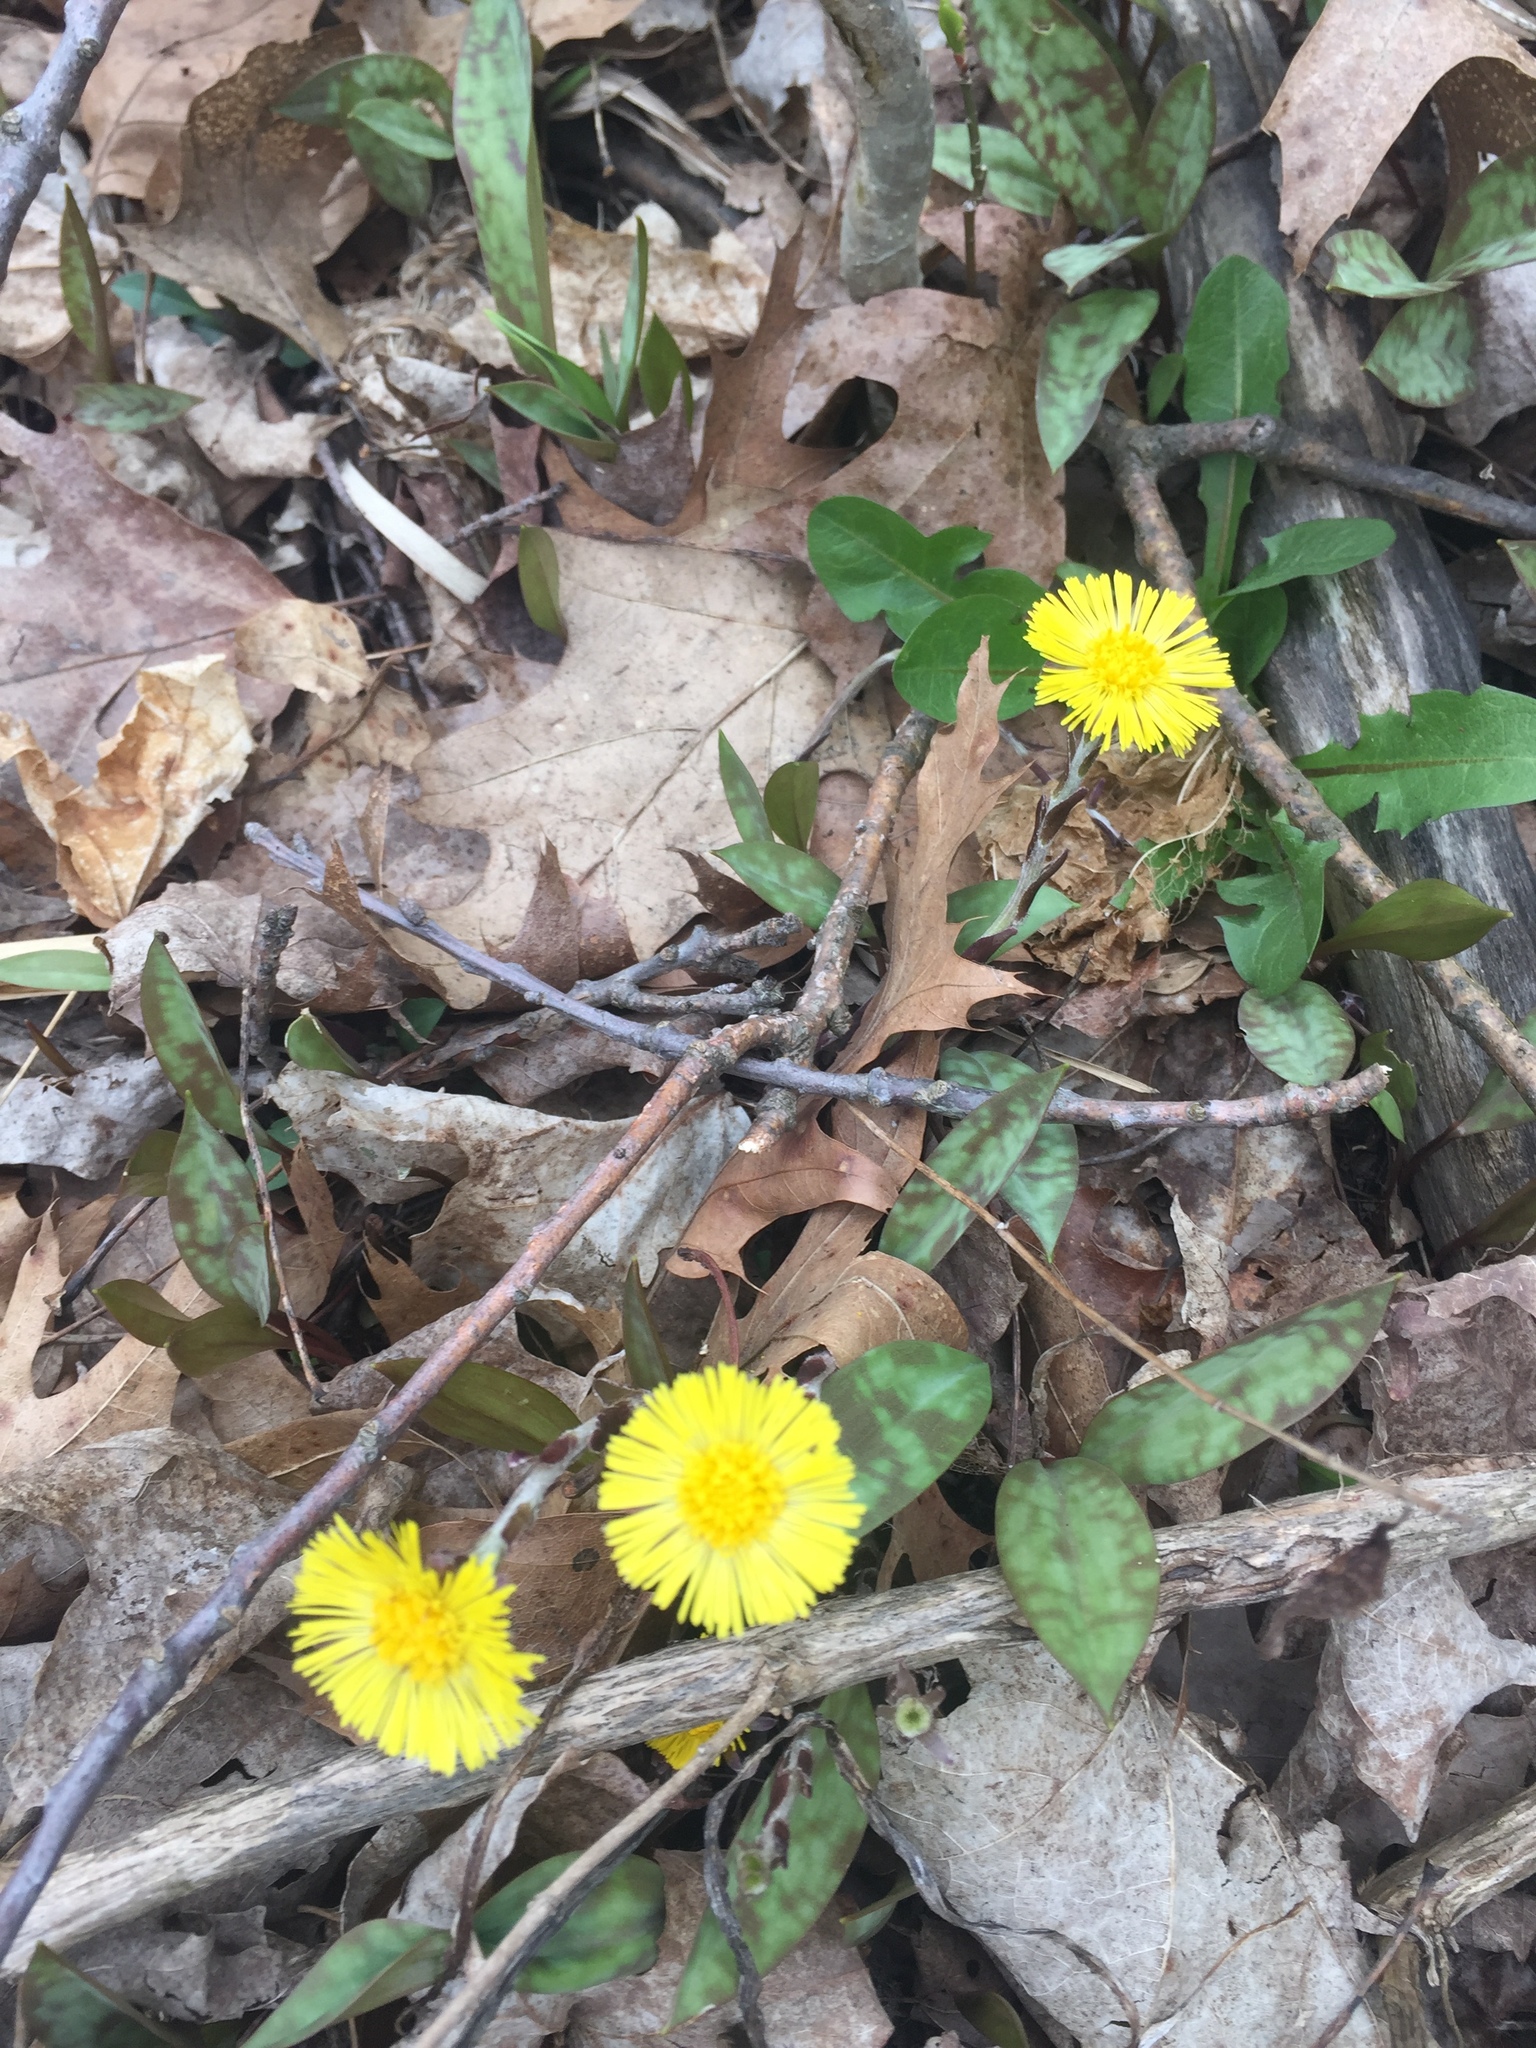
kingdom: Plantae
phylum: Tracheophyta
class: Magnoliopsida
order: Asterales
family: Asteraceae
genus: Tussilago
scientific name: Tussilago farfara
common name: Coltsfoot
